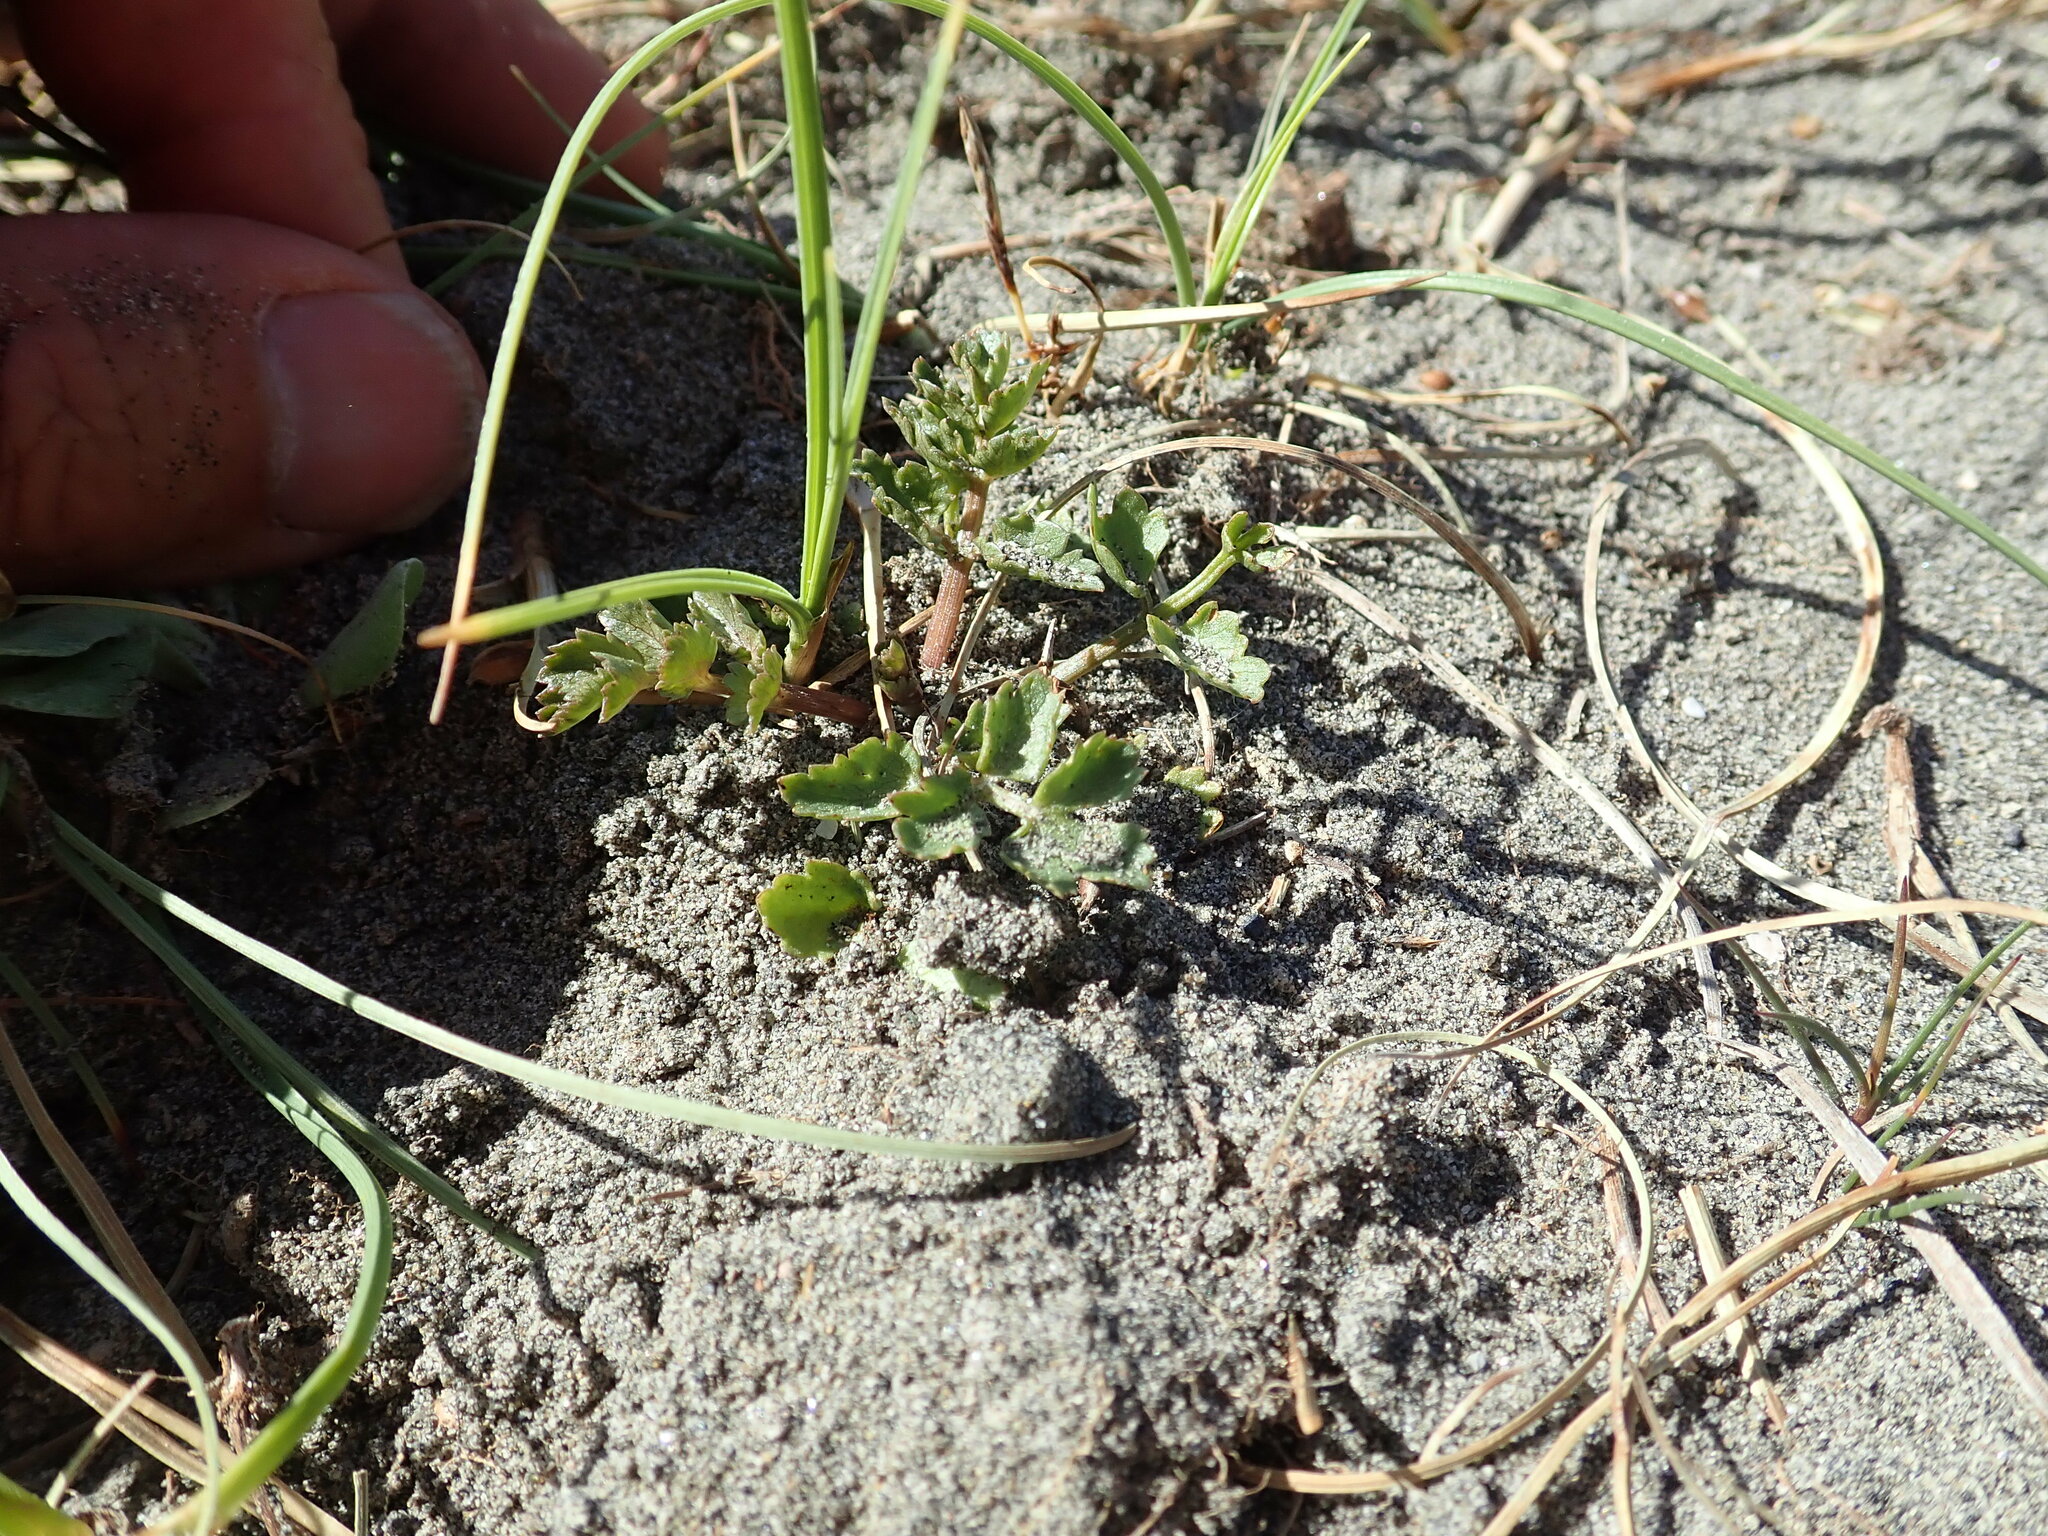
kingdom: Plantae
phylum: Tracheophyta
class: Magnoliopsida
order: Apiales
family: Apiaceae
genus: Helosciadium
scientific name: Helosciadium nodiflorum
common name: Fool's-watercress
